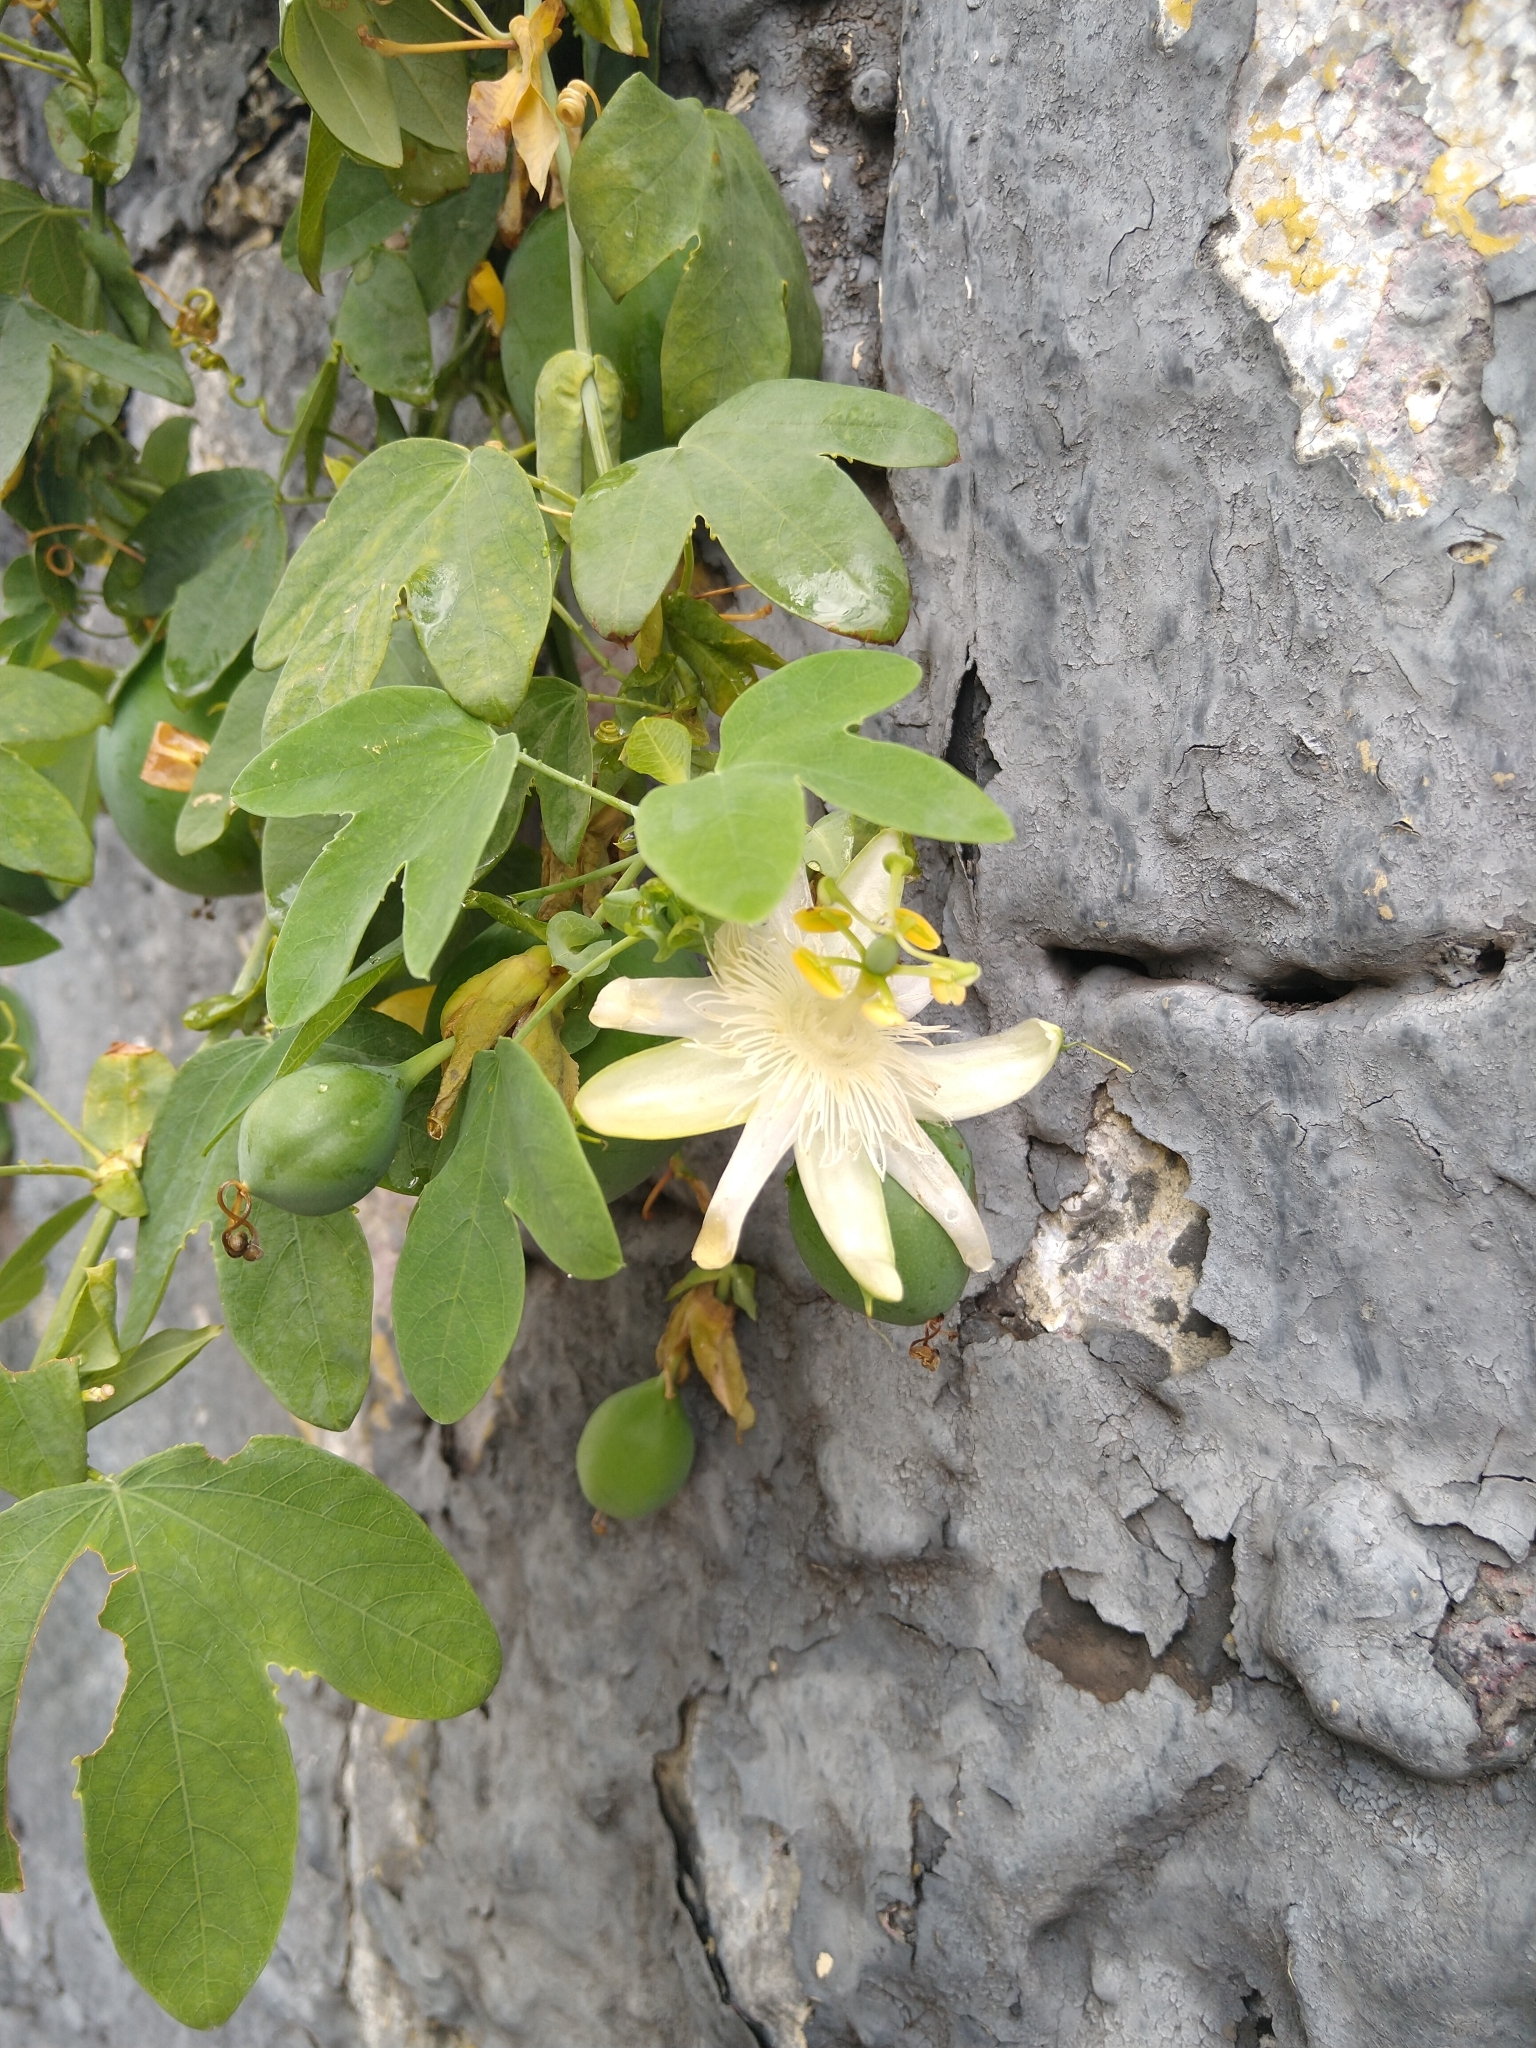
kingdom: Plantae
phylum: Tracheophyta
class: Magnoliopsida
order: Malpighiales
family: Passifloraceae
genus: Passiflora
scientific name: Passiflora subpeltata
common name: White passionflower
